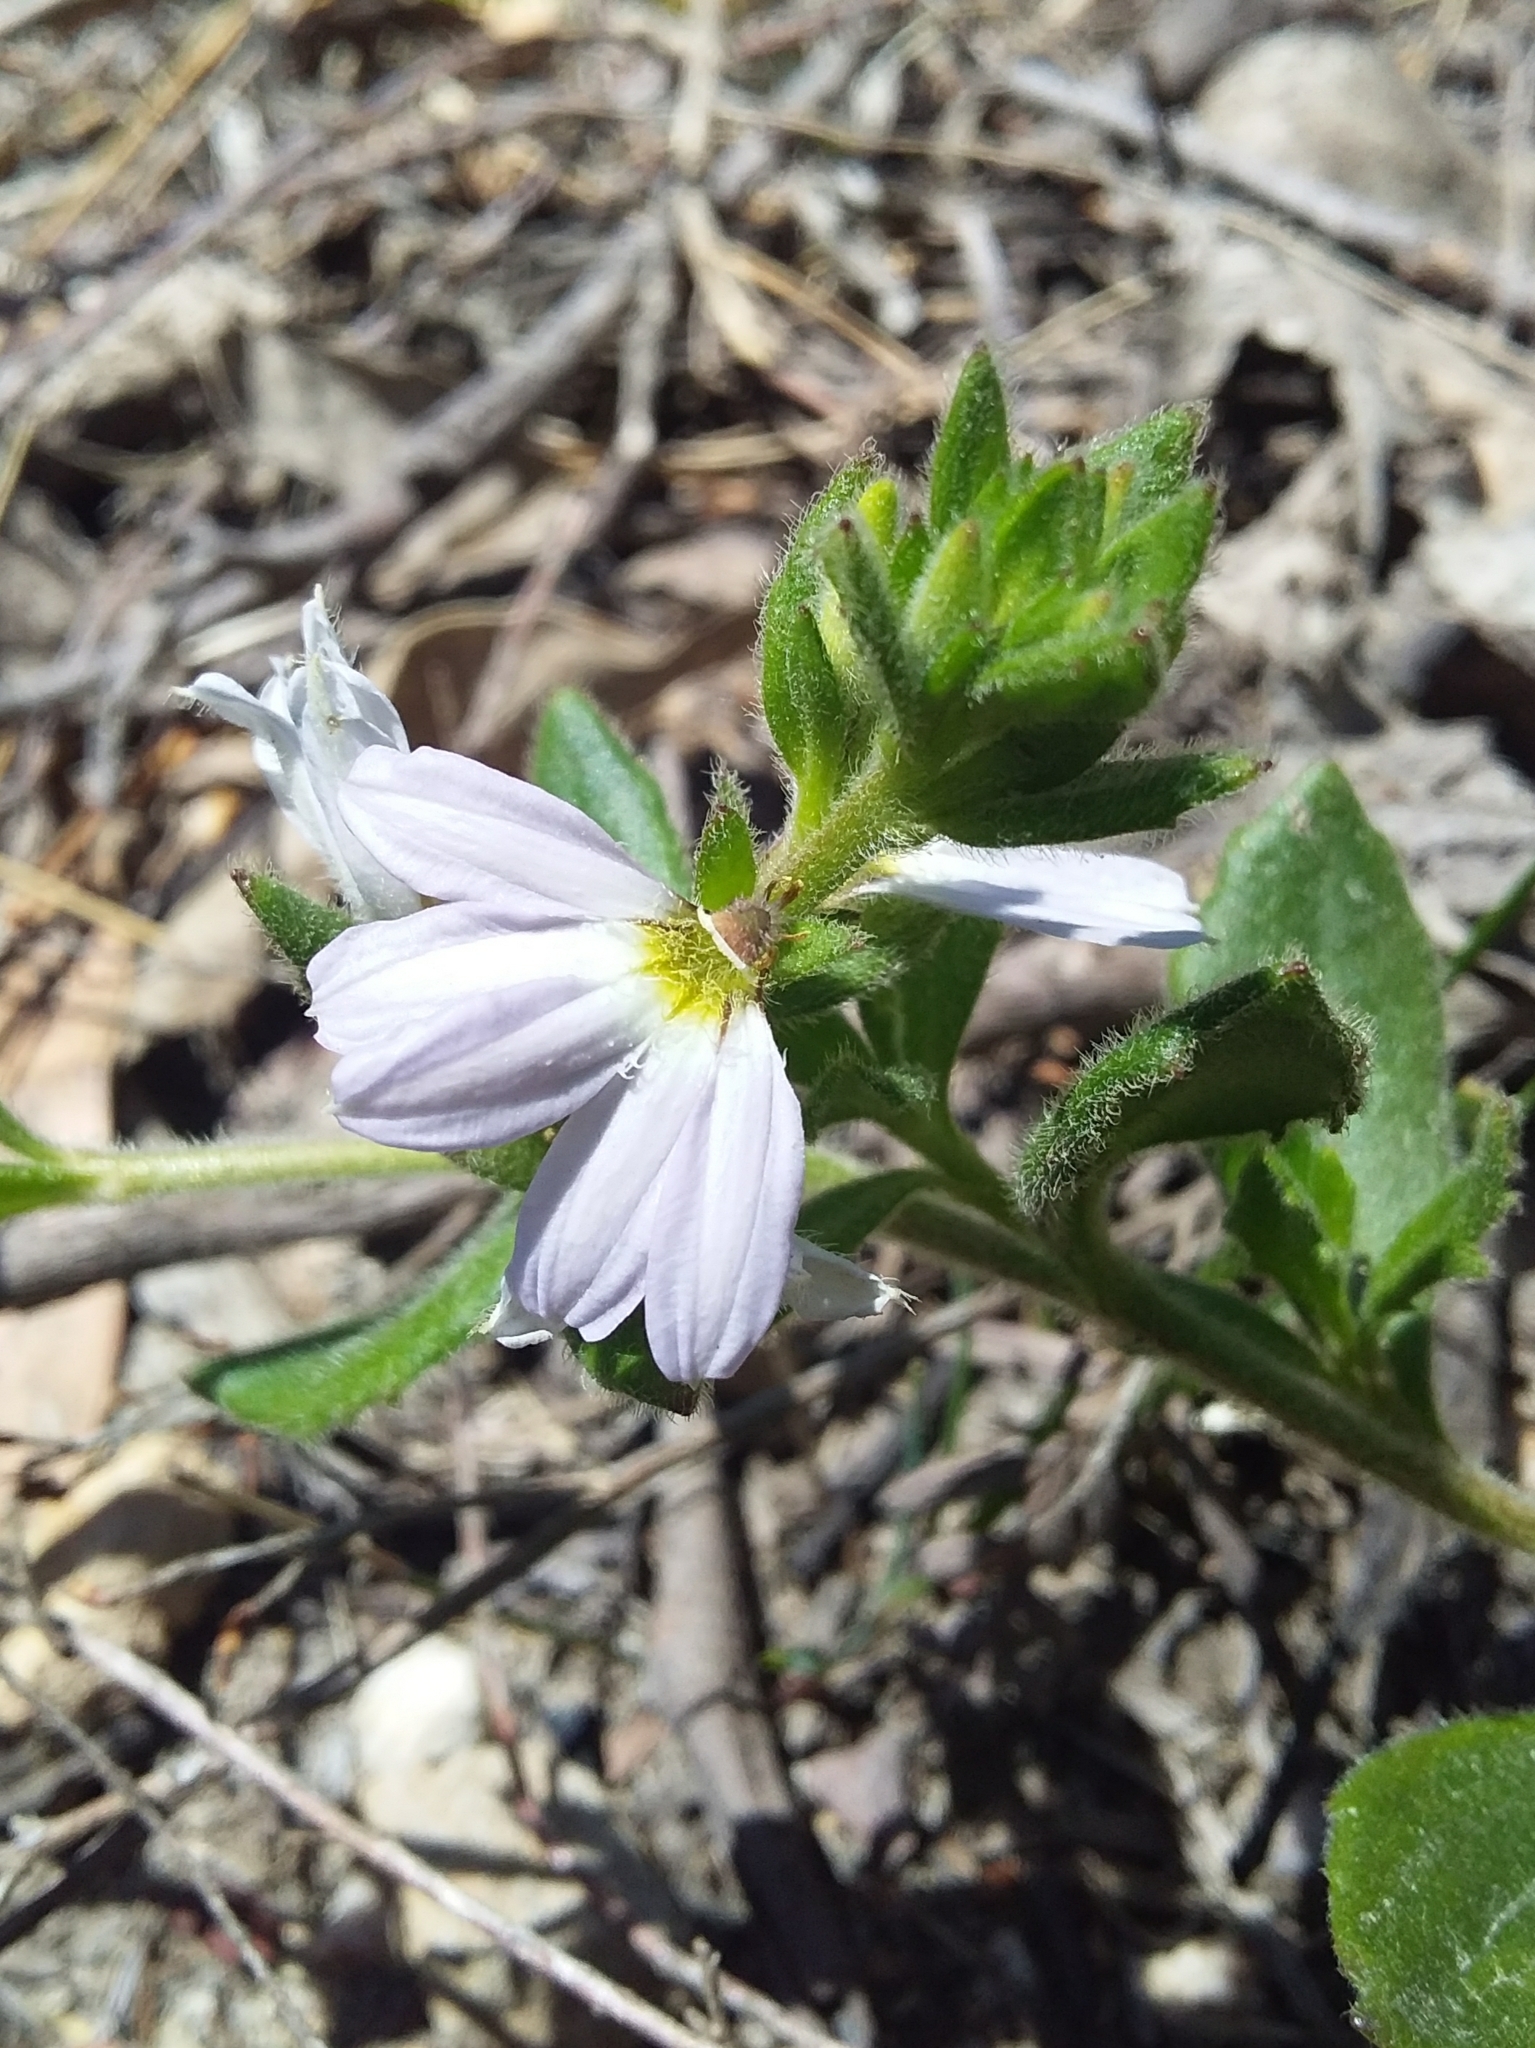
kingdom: Plantae
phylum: Tracheophyta
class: Magnoliopsida
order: Asterales
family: Goodeniaceae
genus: Scaevola
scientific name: Scaevola albida
